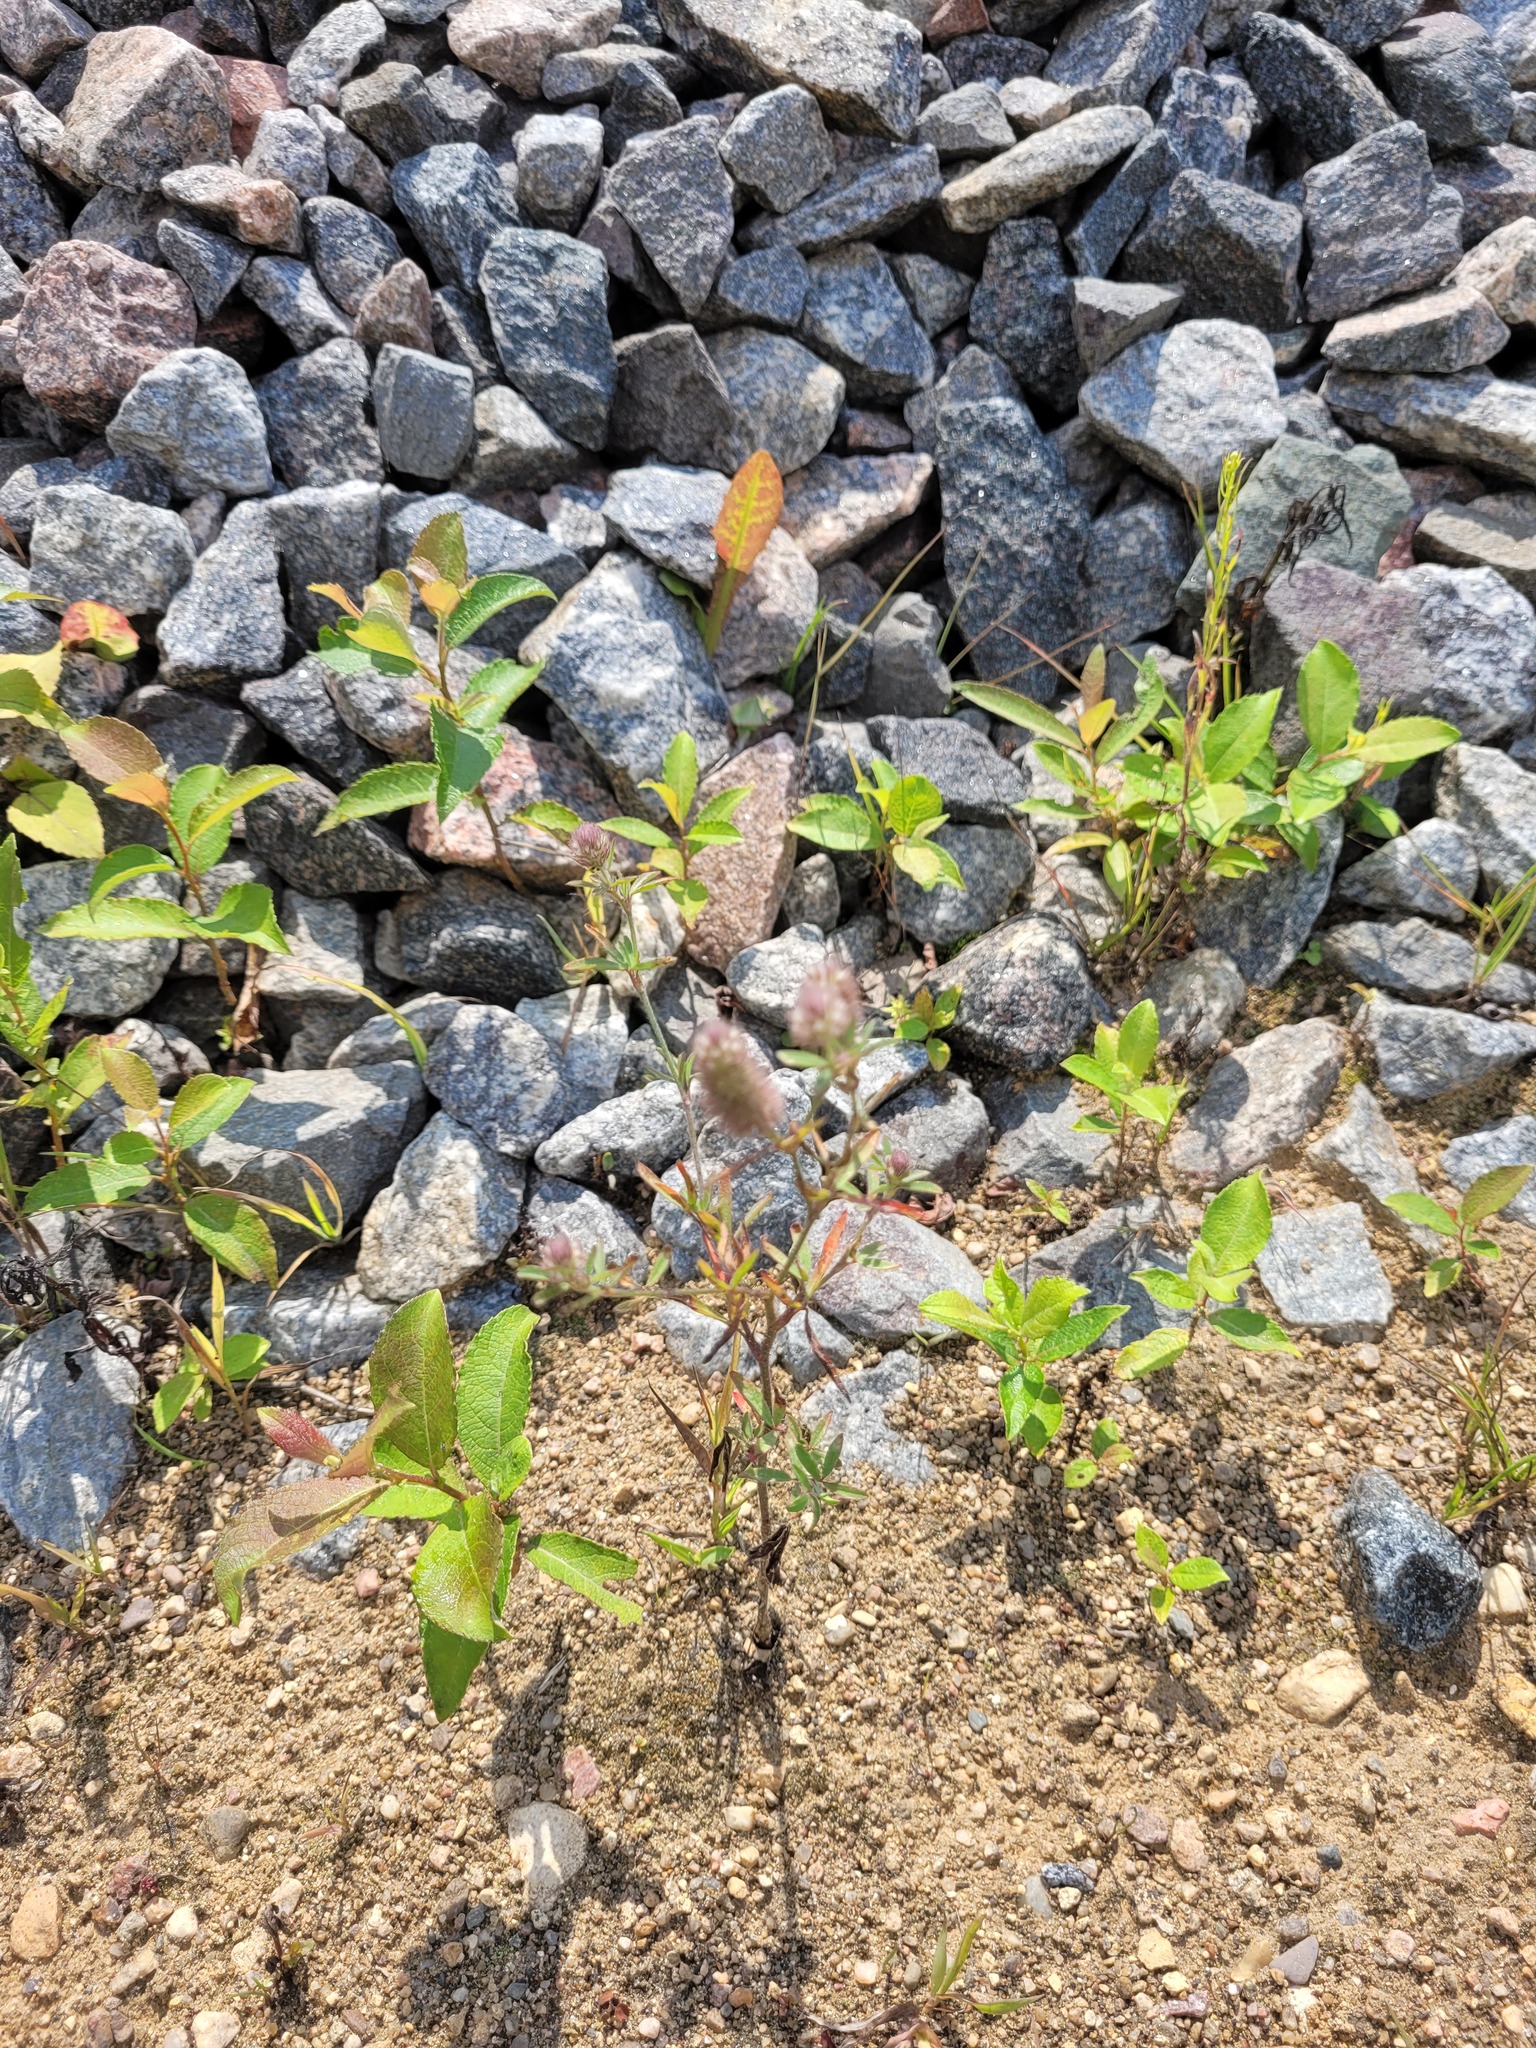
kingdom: Plantae
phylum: Tracheophyta
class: Magnoliopsida
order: Fabales
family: Fabaceae
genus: Trifolium
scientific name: Trifolium arvense
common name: Hare's-foot clover
